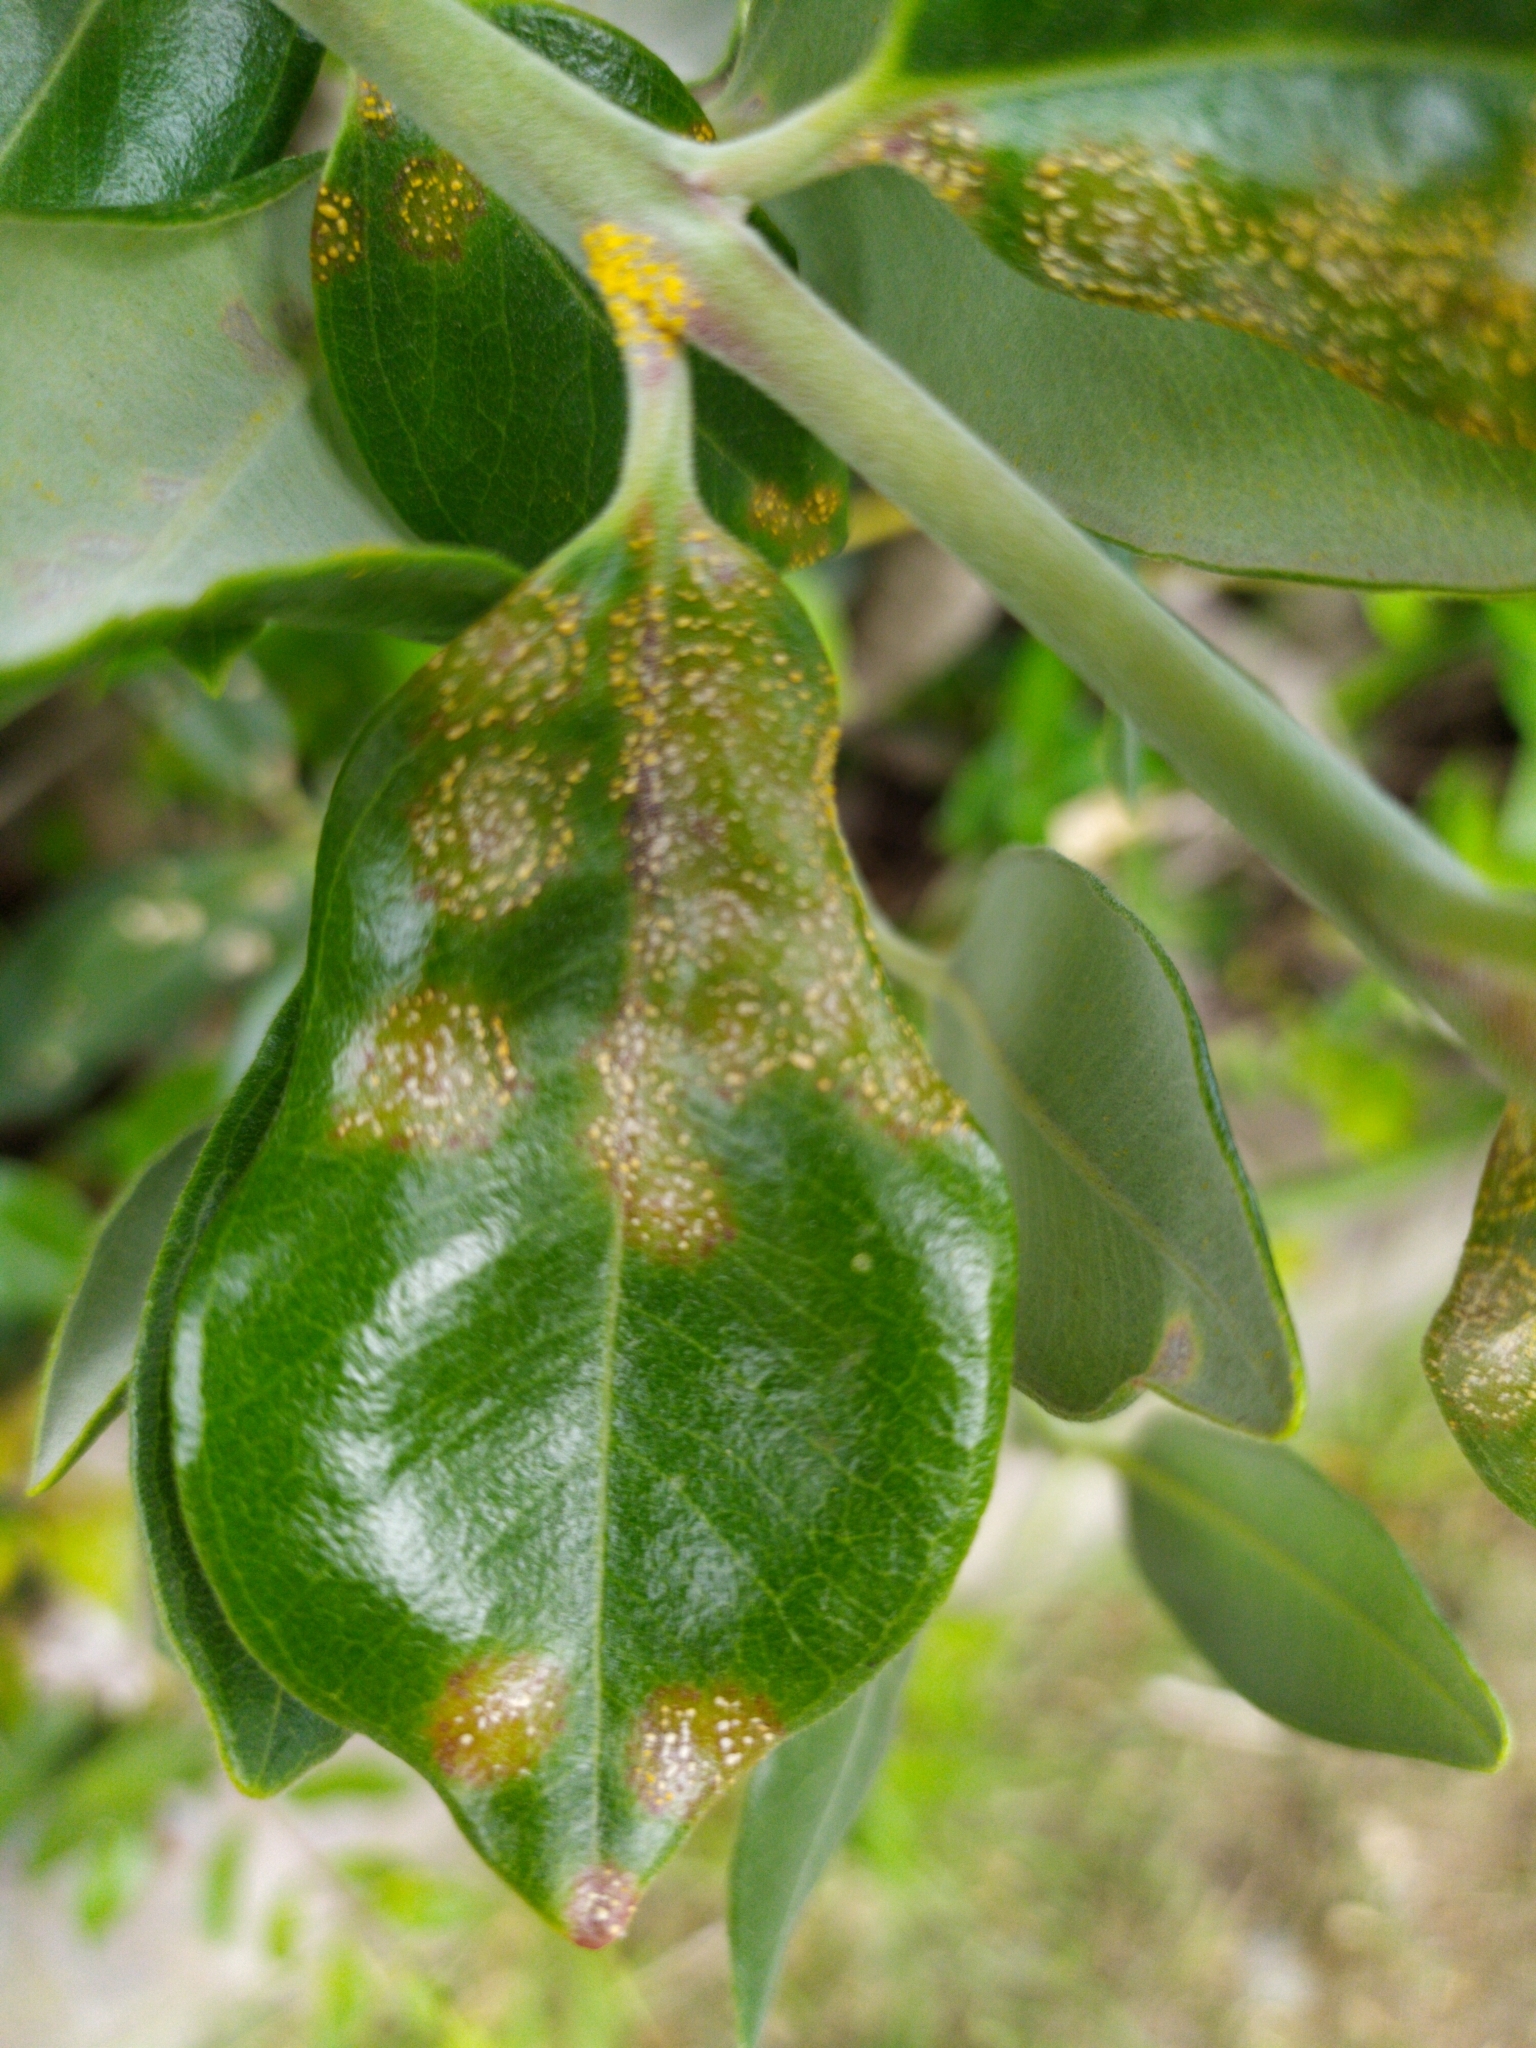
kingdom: Fungi
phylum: Basidiomycota
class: Pucciniomycetes
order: Pucciniales
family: Sphaerophragmiaceae
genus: Austropuccinia
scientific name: Austropuccinia psidii
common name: Myrtle rust
